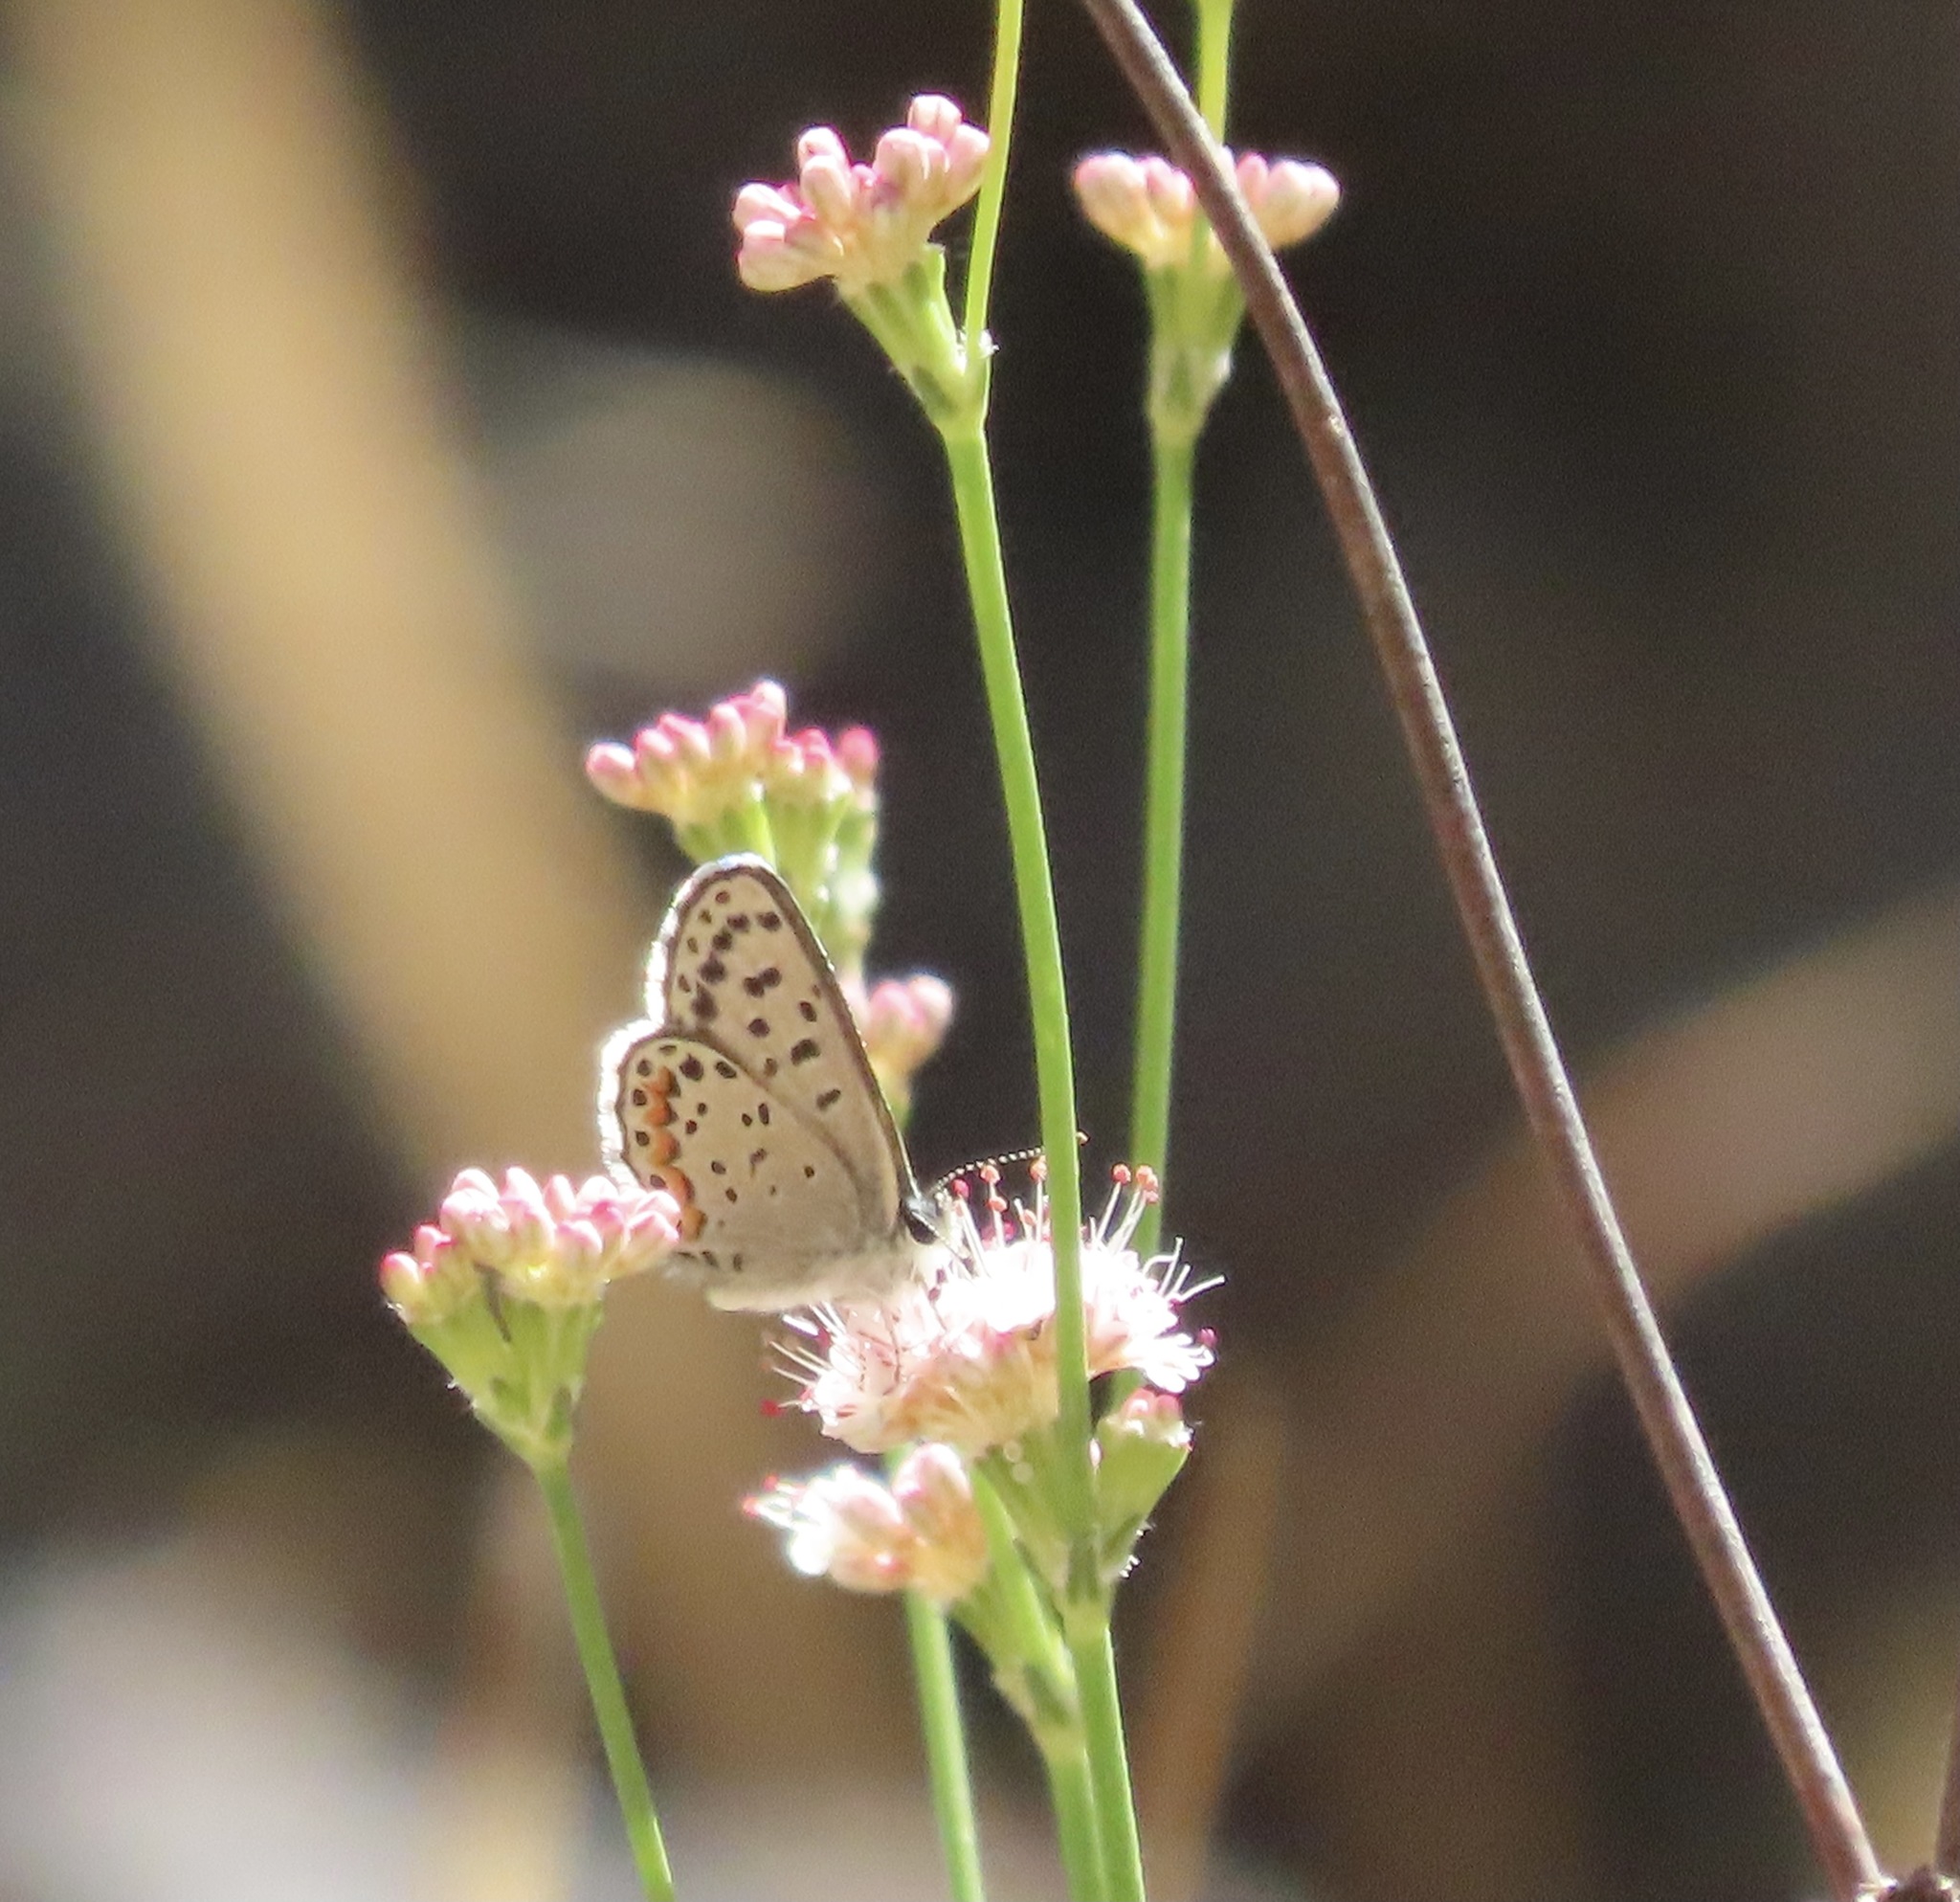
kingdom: Animalia
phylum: Arthropoda
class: Insecta
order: Lepidoptera
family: Lycaenidae
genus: Euphilotes
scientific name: Euphilotes enoptes
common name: Dotted blue
